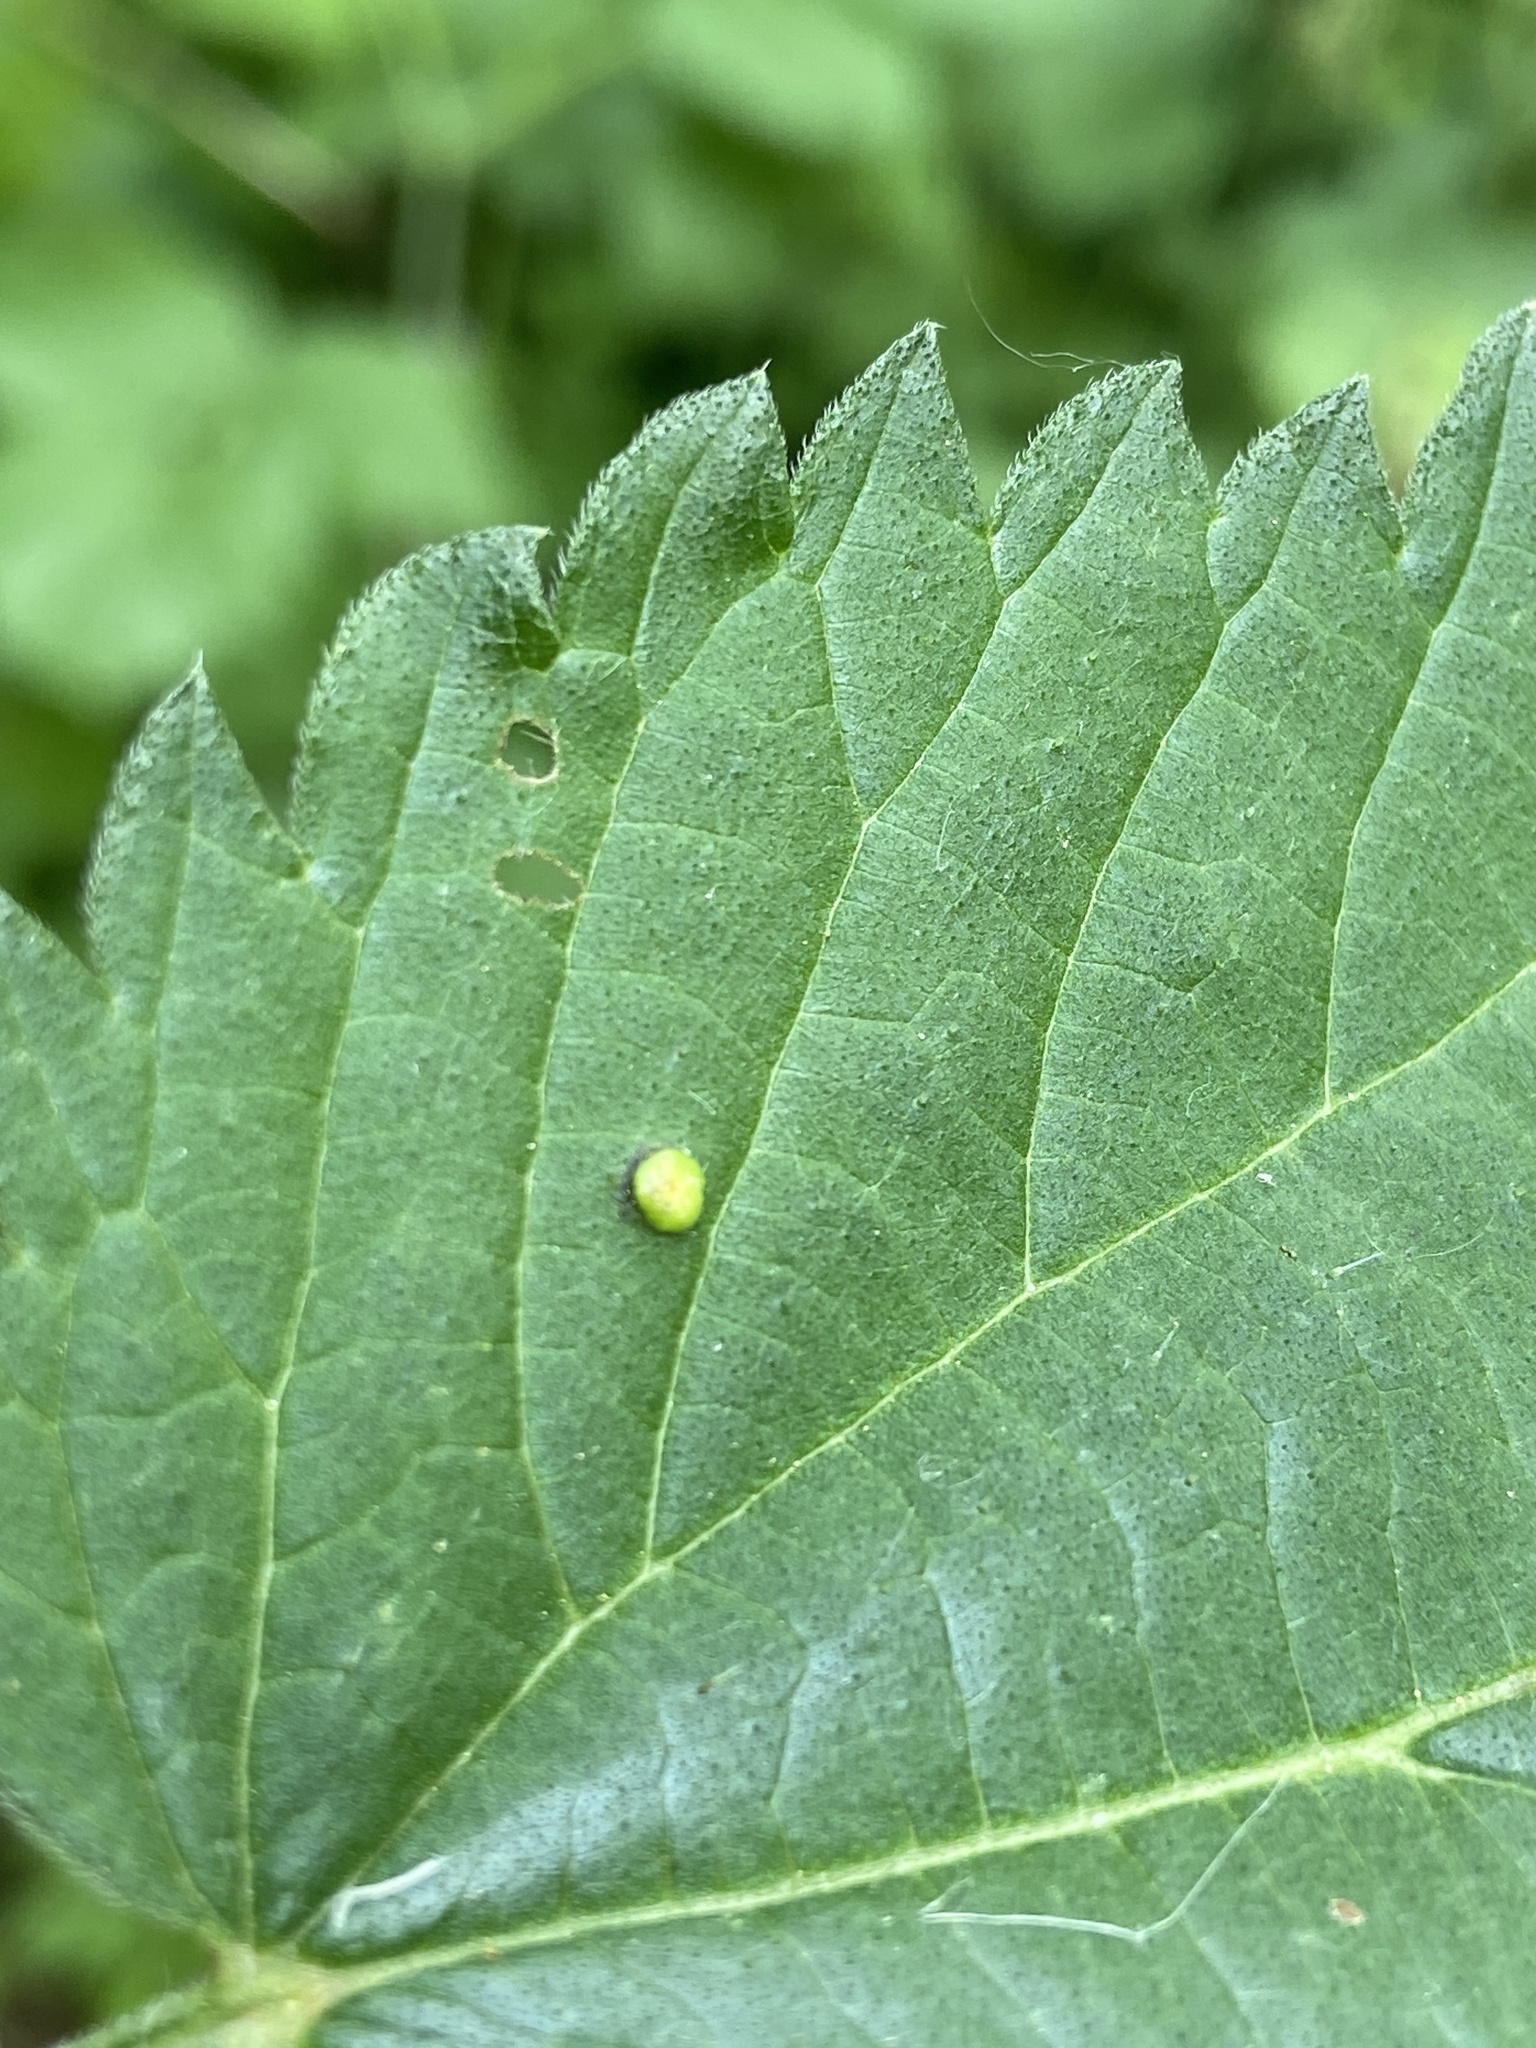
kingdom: Fungi
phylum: Basidiomycota
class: Pucciniomycetes
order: Pucciniales
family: Pucciniaceae
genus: Puccinia
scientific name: Puccinia urticata
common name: Nettle clustercup rust fungus
